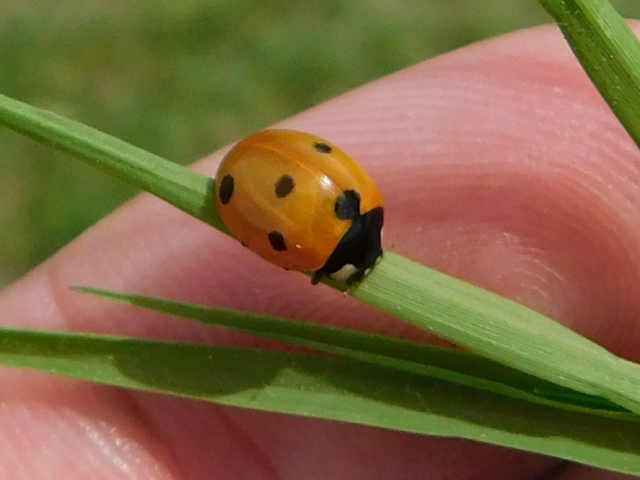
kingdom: Animalia
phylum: Arthropoda
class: Insecta
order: Coleoptera
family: Coccinellidae
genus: Coccinella
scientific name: Coccinella septempunctata
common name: Sevenspotted lady beetle
